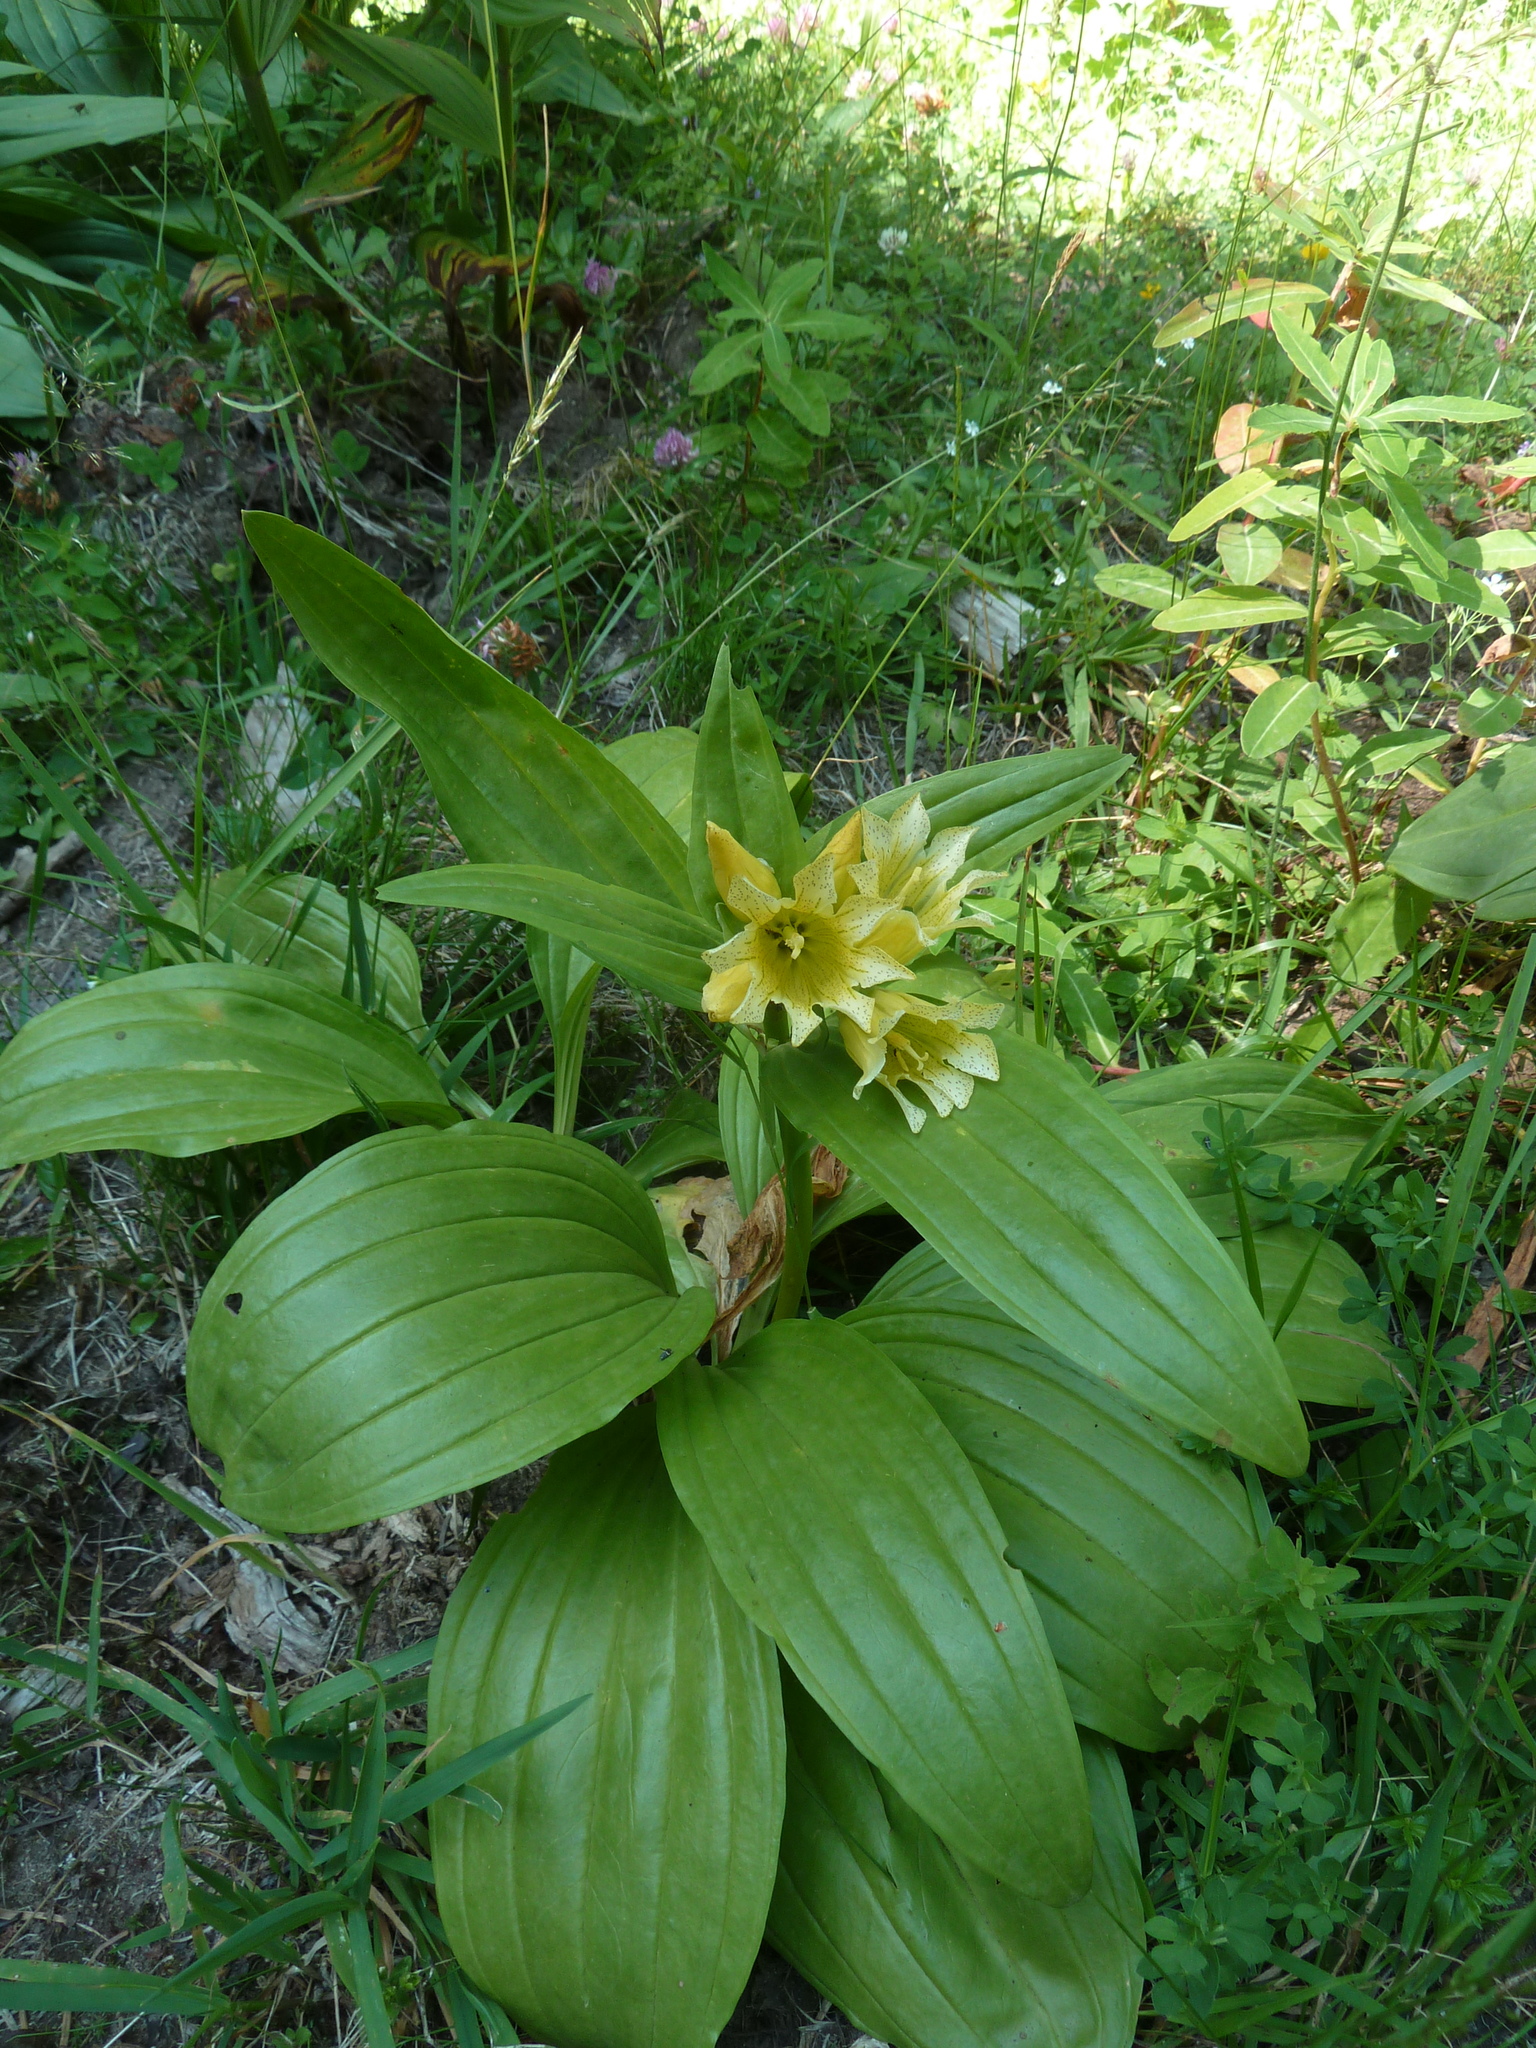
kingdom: Plantae
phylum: Tracheophyta
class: Magnoliopsida
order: Gentianales
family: Gentianaceae
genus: Gentiana
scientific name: Gentiana burseri
